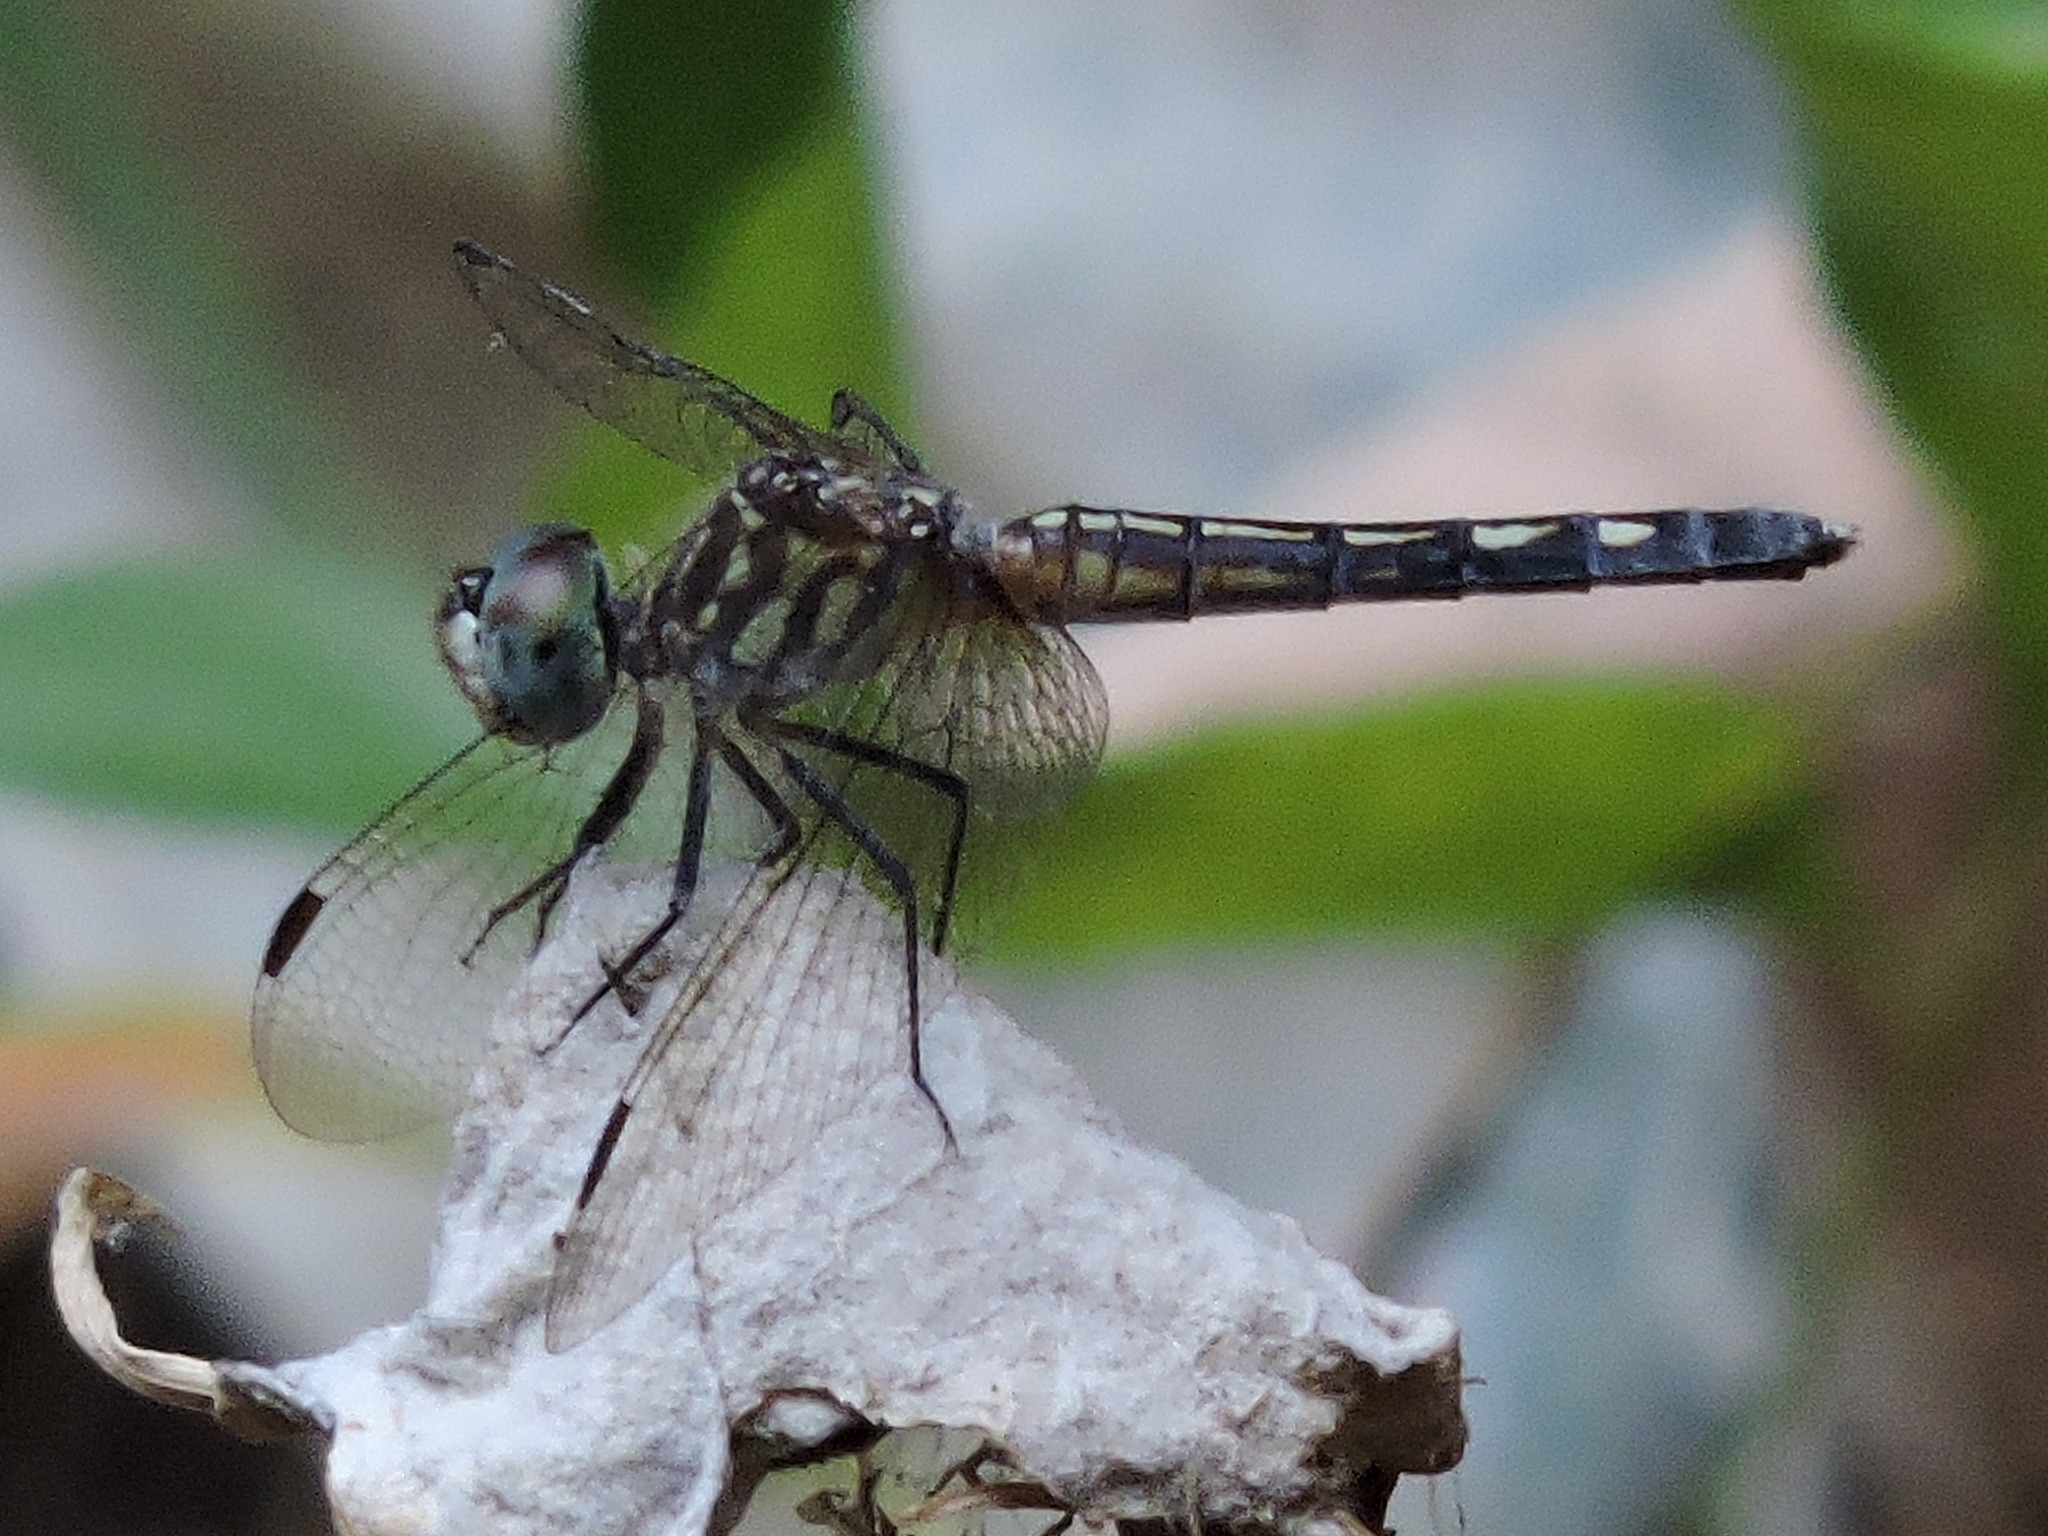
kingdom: Animalia
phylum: Arthropoda
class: Insecta
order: Odonata
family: Libellulidae
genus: Pachydiplax
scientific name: Pachydiplax longipennis
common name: Blue dasher
